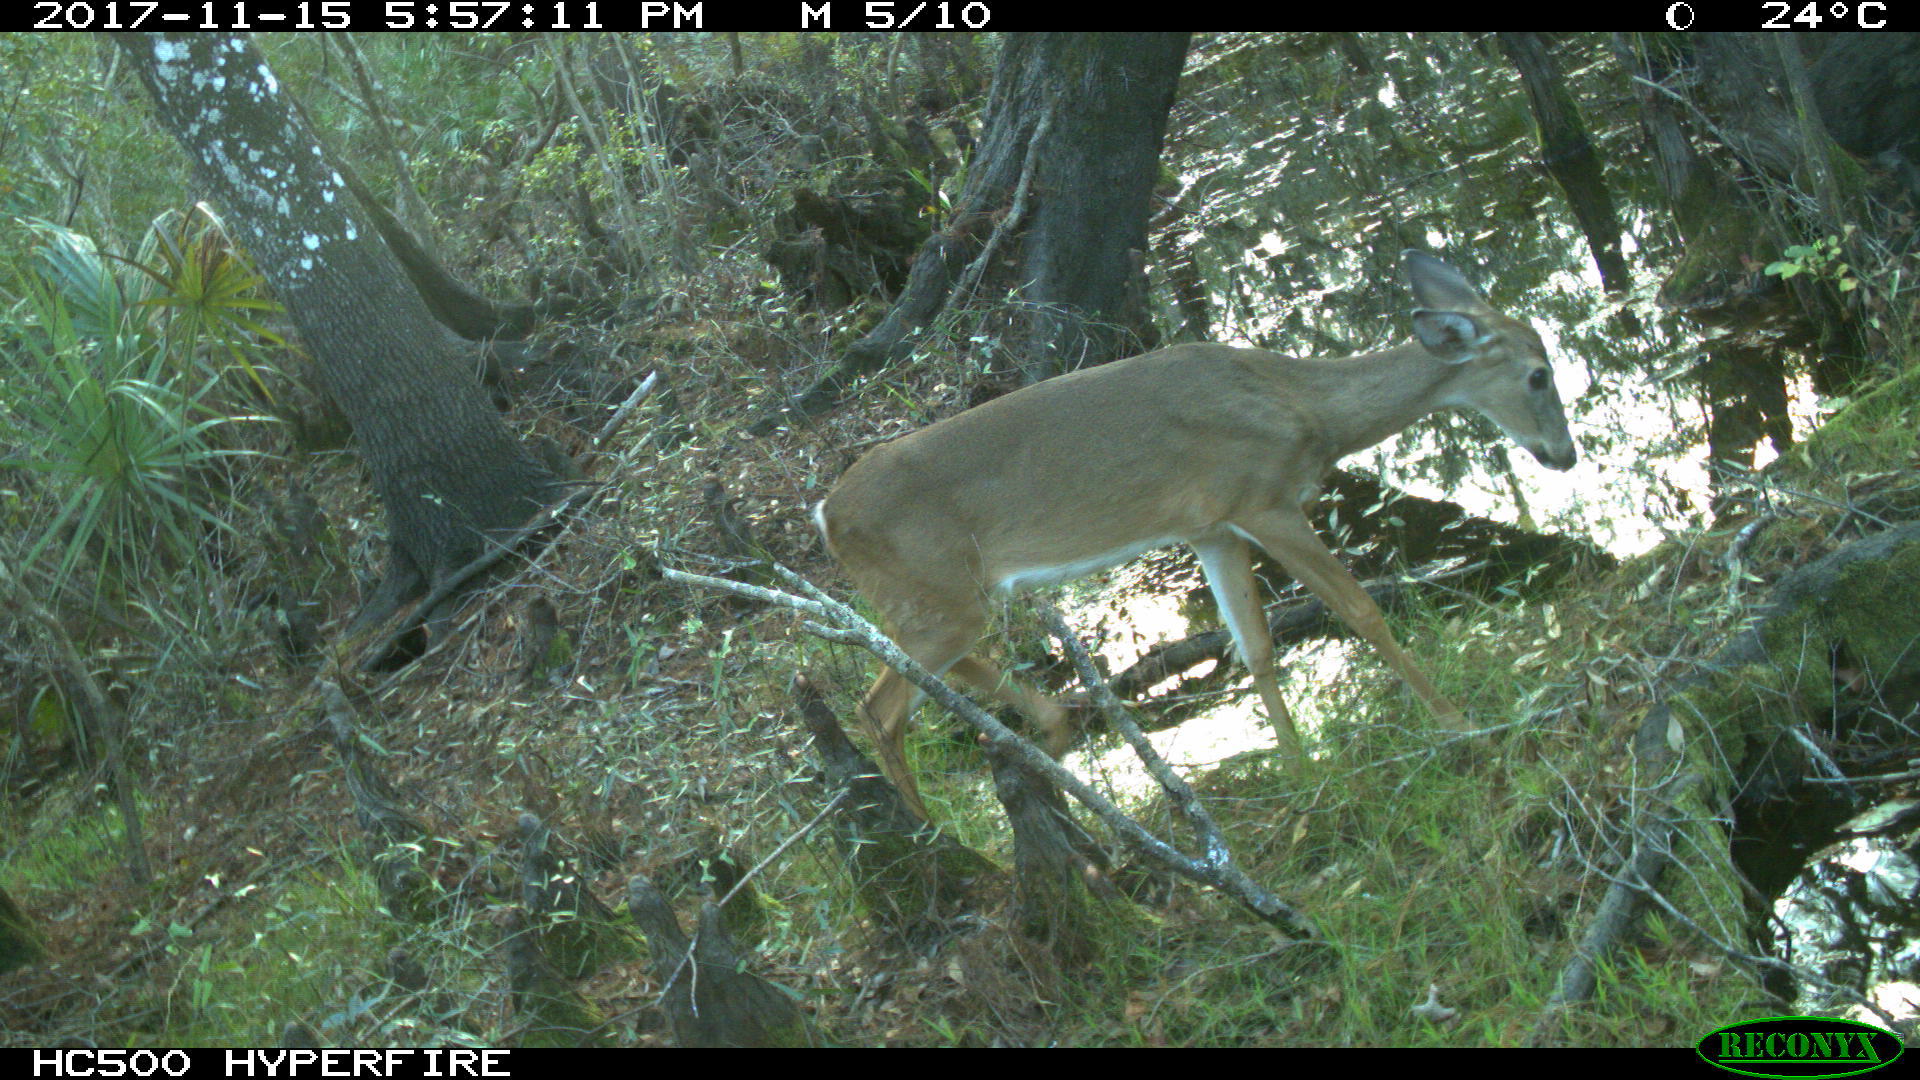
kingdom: Animalia
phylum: Chordata
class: Mammalia
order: Artiodactyla
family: Cervidae
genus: Odocoileus
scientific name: Odocoileus virginianus
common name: White-tailed deer
